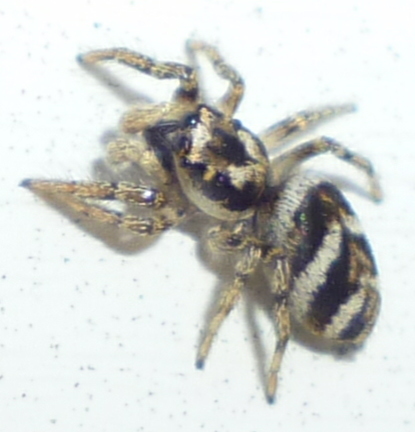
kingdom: Animalia
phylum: Arthropoda
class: Arachnida
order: Araneae
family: Salticidae
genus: Salticus
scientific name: Salticus scenicus
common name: Zebra jumper
